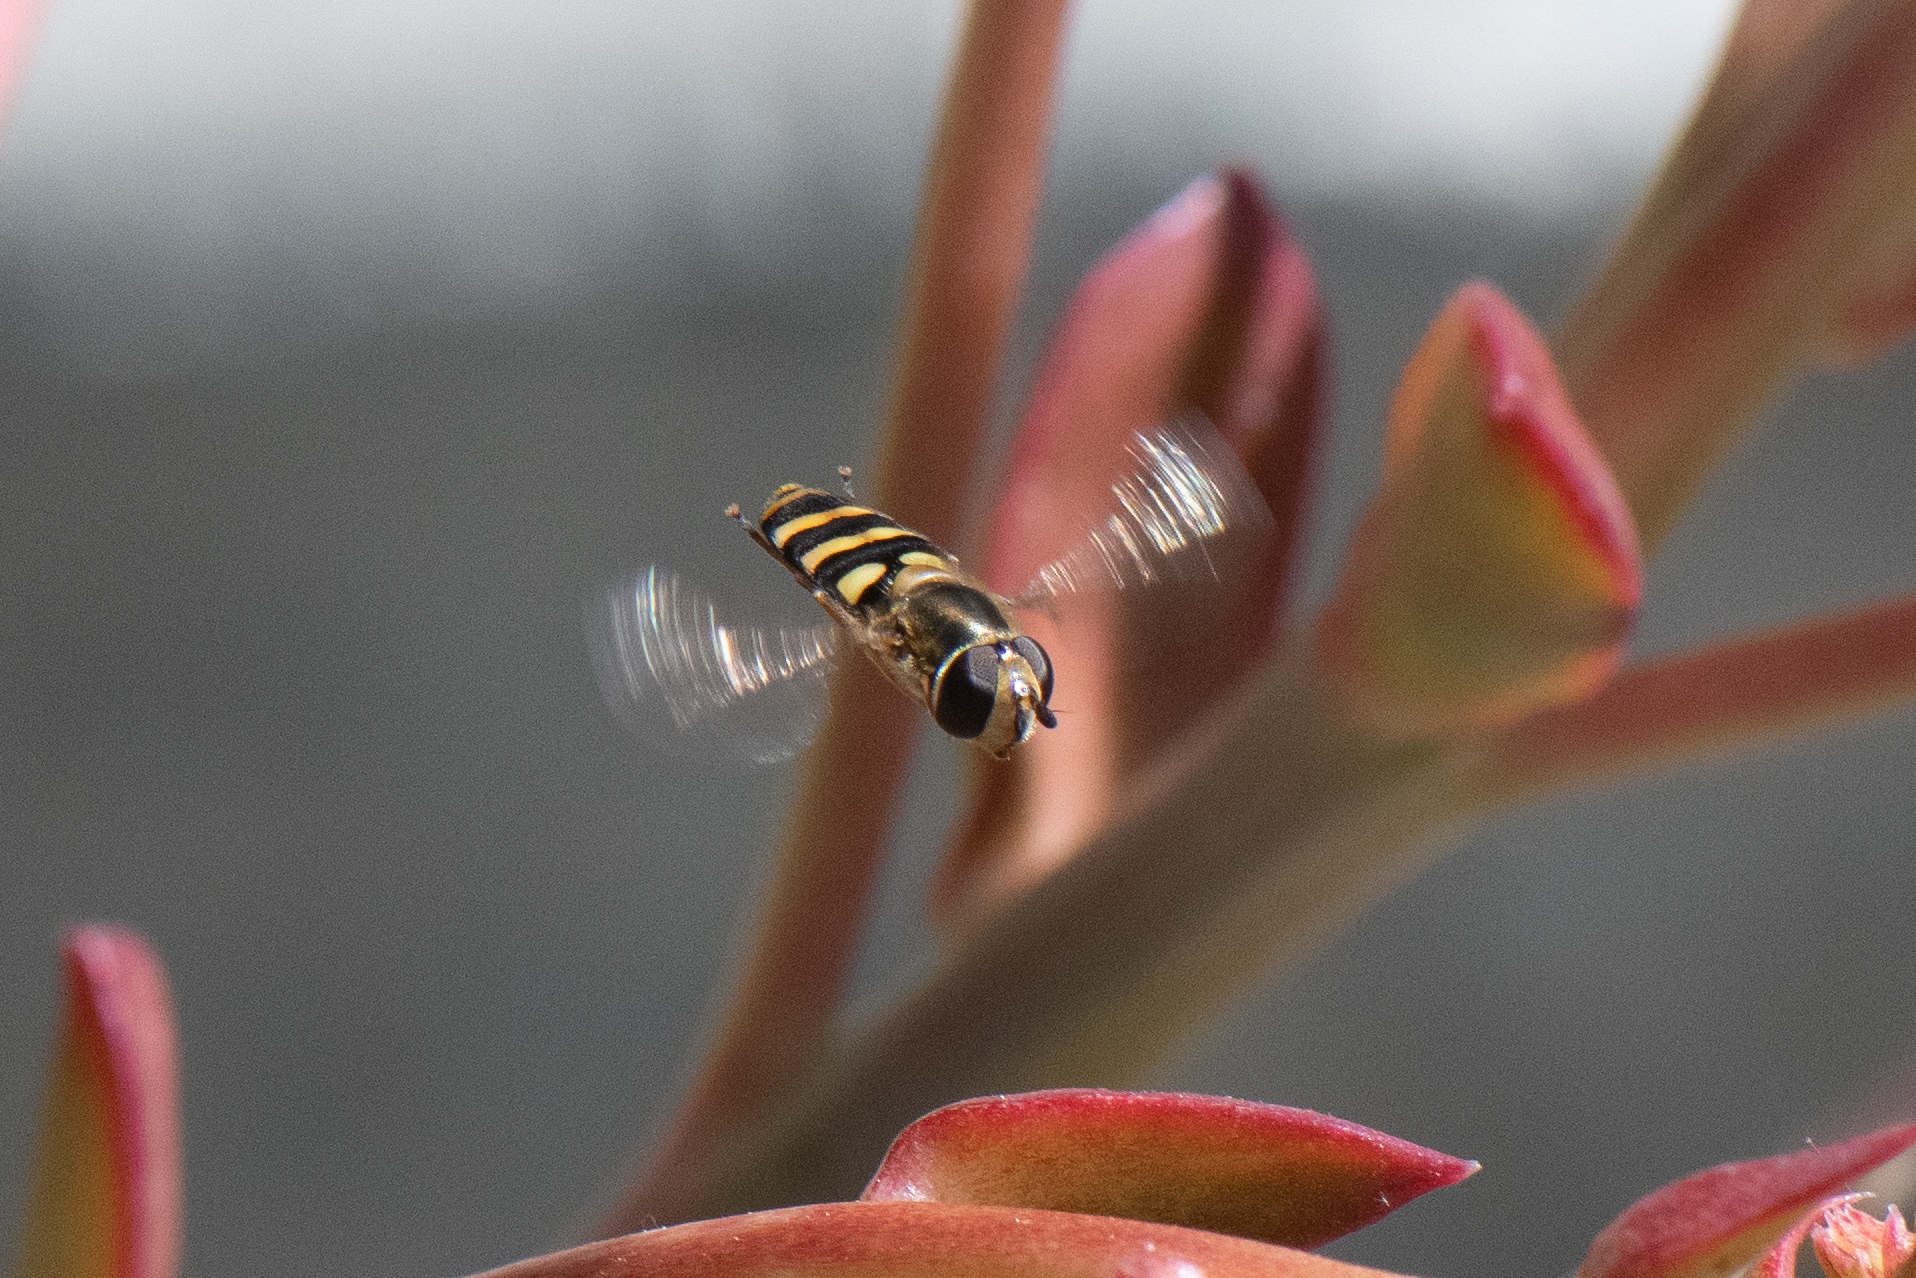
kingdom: Animalia
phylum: Arthropoda
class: Insecta
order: Diptera
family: Syrphidae
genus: Eupeodes
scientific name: Eupeodes fumipennis
